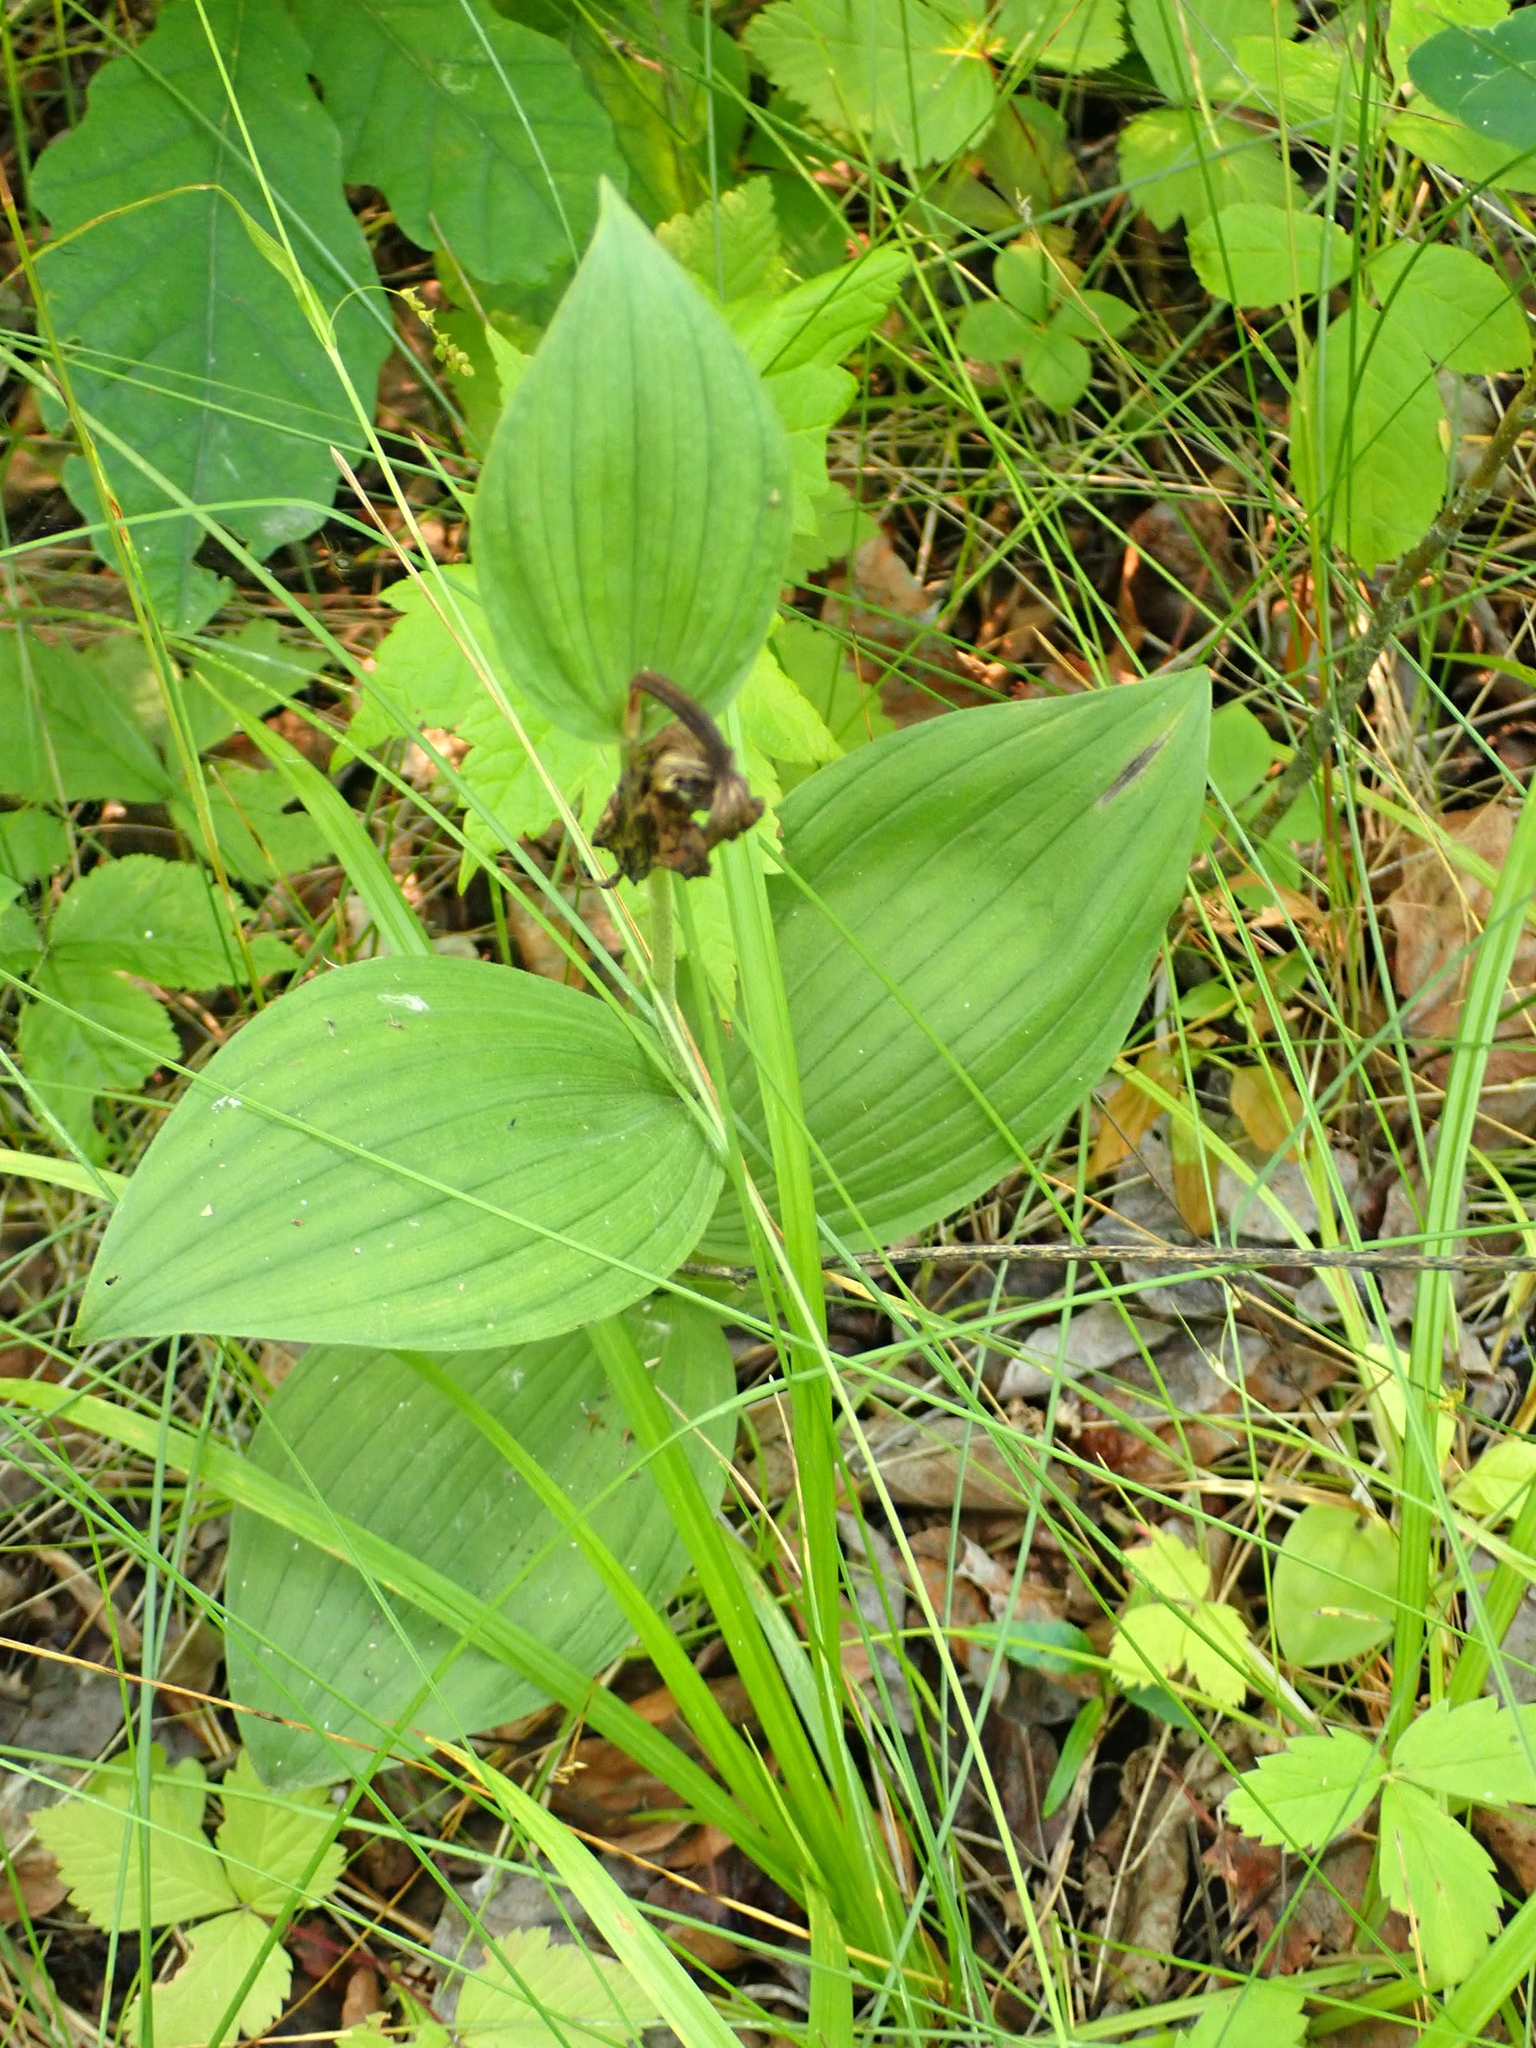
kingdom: Plantae
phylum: Tracheophyta
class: Liliopsida
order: Asparagales
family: Orchidaceae
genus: Cypripedium
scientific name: Cypripedium reginae
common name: Queen lady's-slipper
